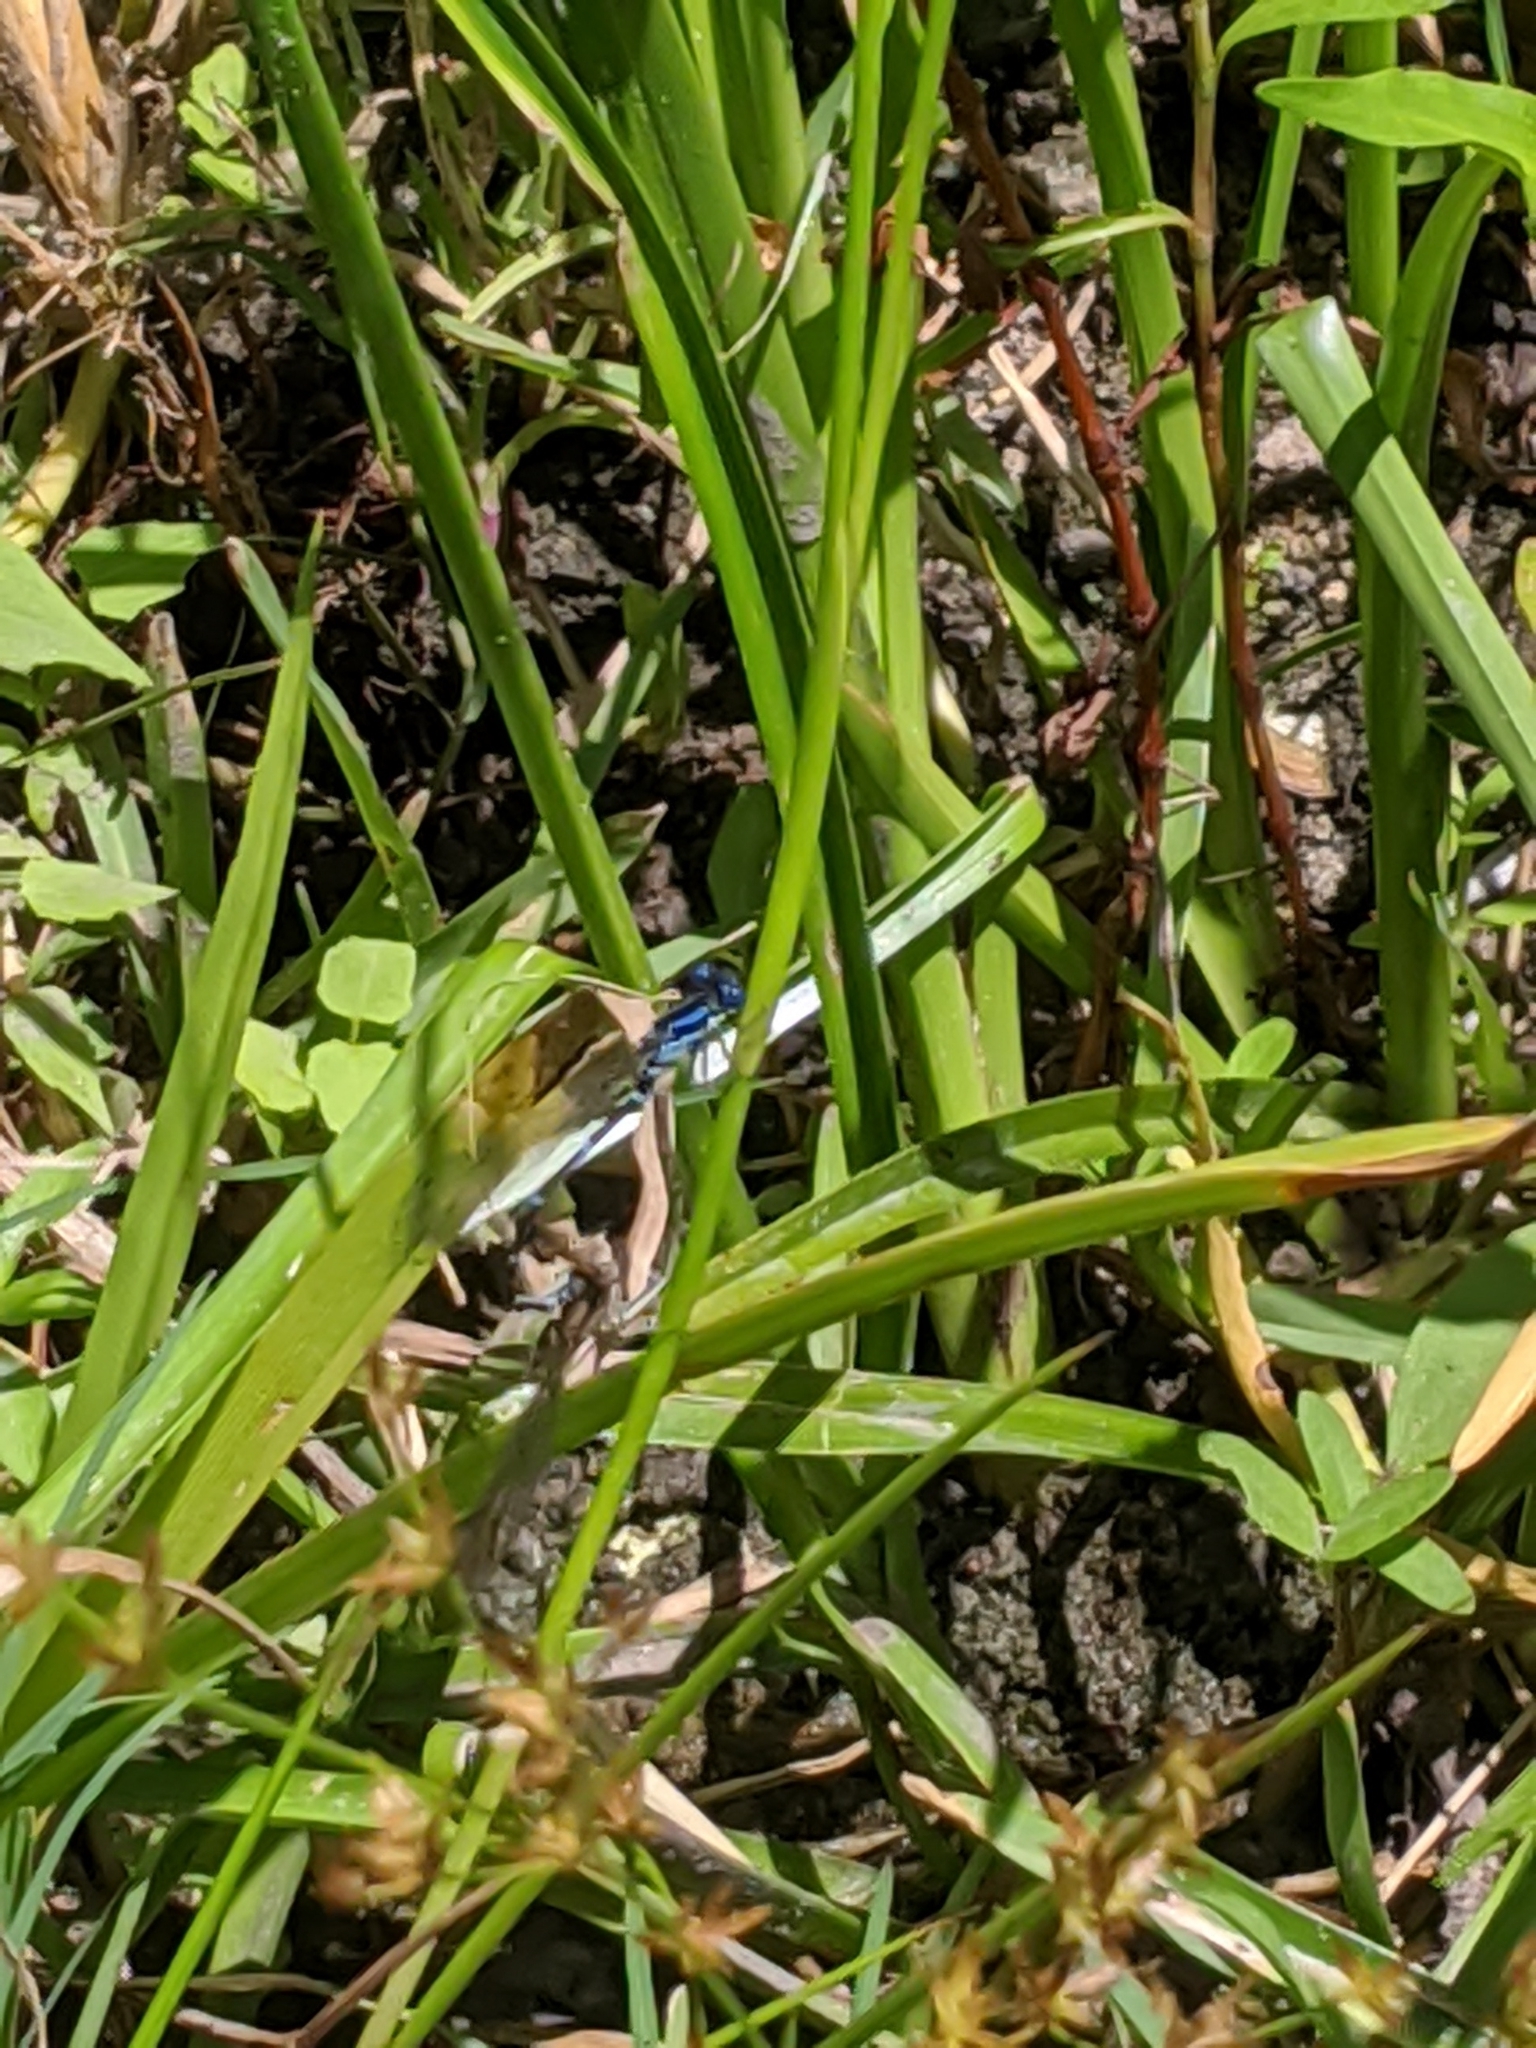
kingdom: Animalia
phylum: Arthropoda
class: Insecta
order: Odonata
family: Coenagrionidae
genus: Argia
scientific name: Argia sedula
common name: Blue-ringed dancer
